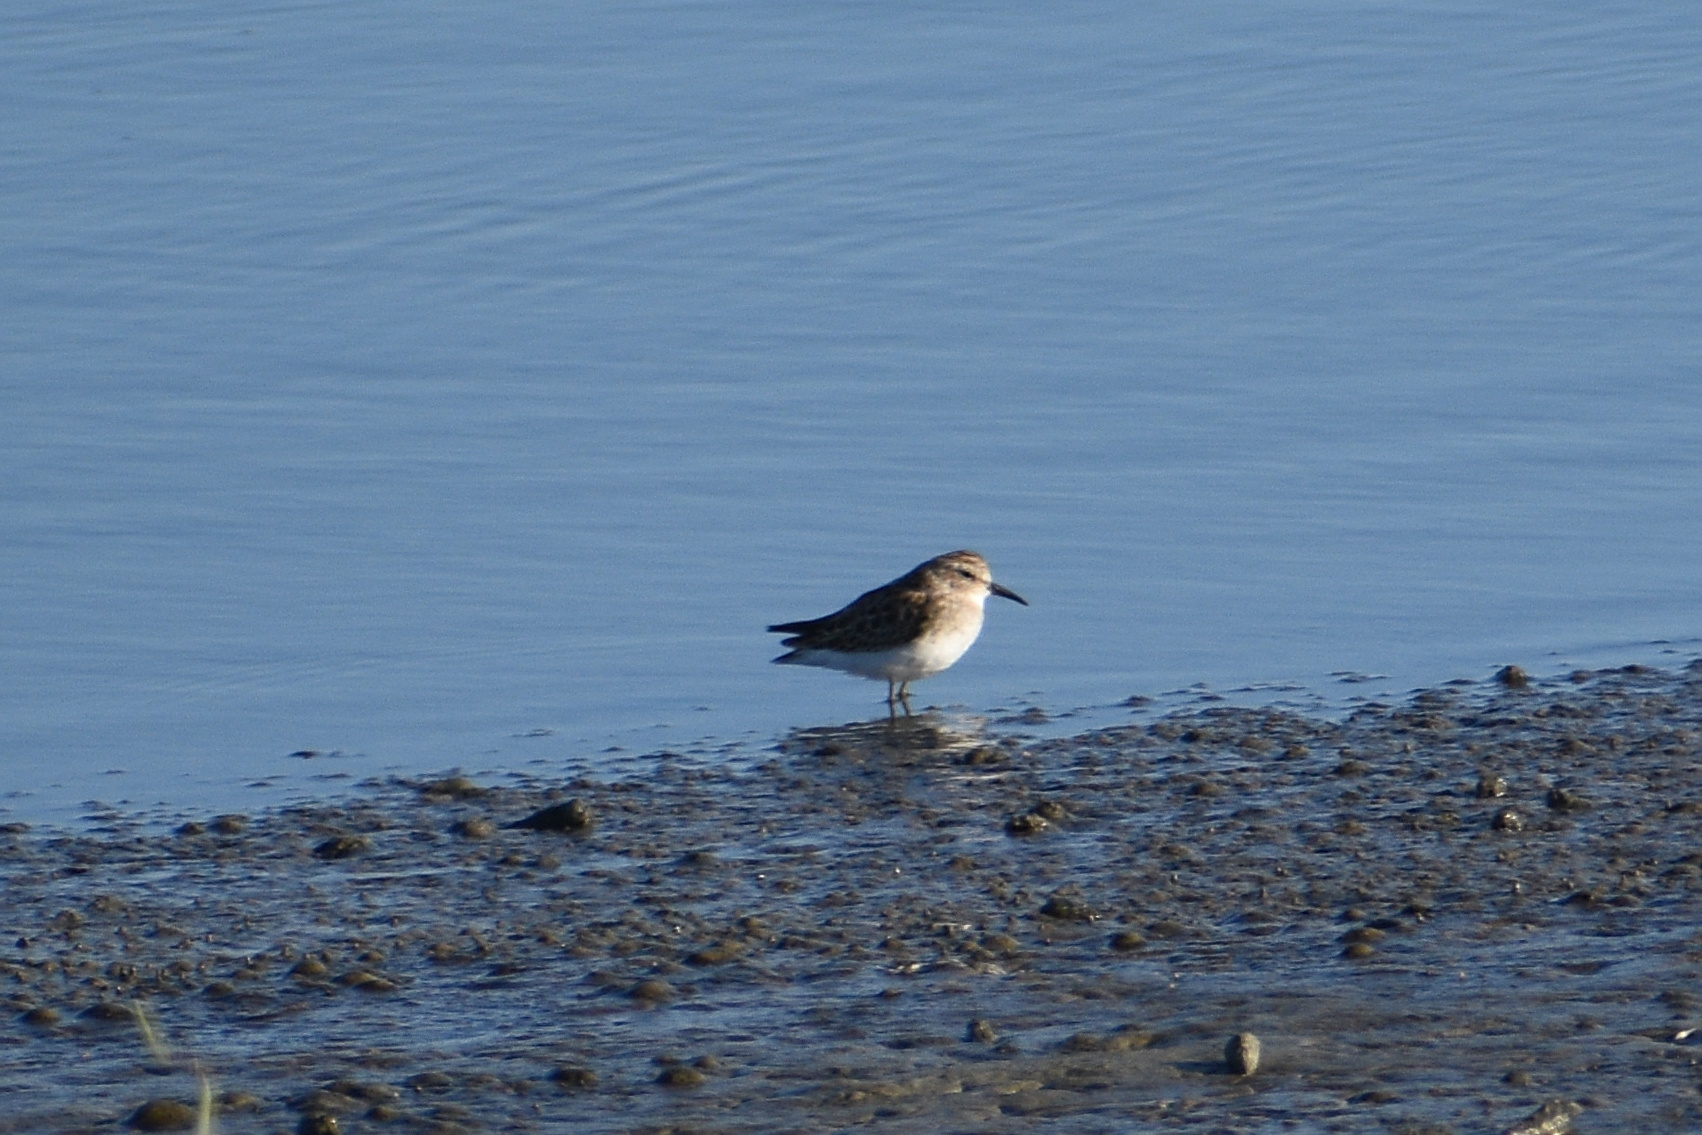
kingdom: Animalia
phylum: Chordata
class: Aves
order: Charadriiformes
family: Scolopacidae
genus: Calidris
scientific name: Calidris minutilla
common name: Least sandpiper
